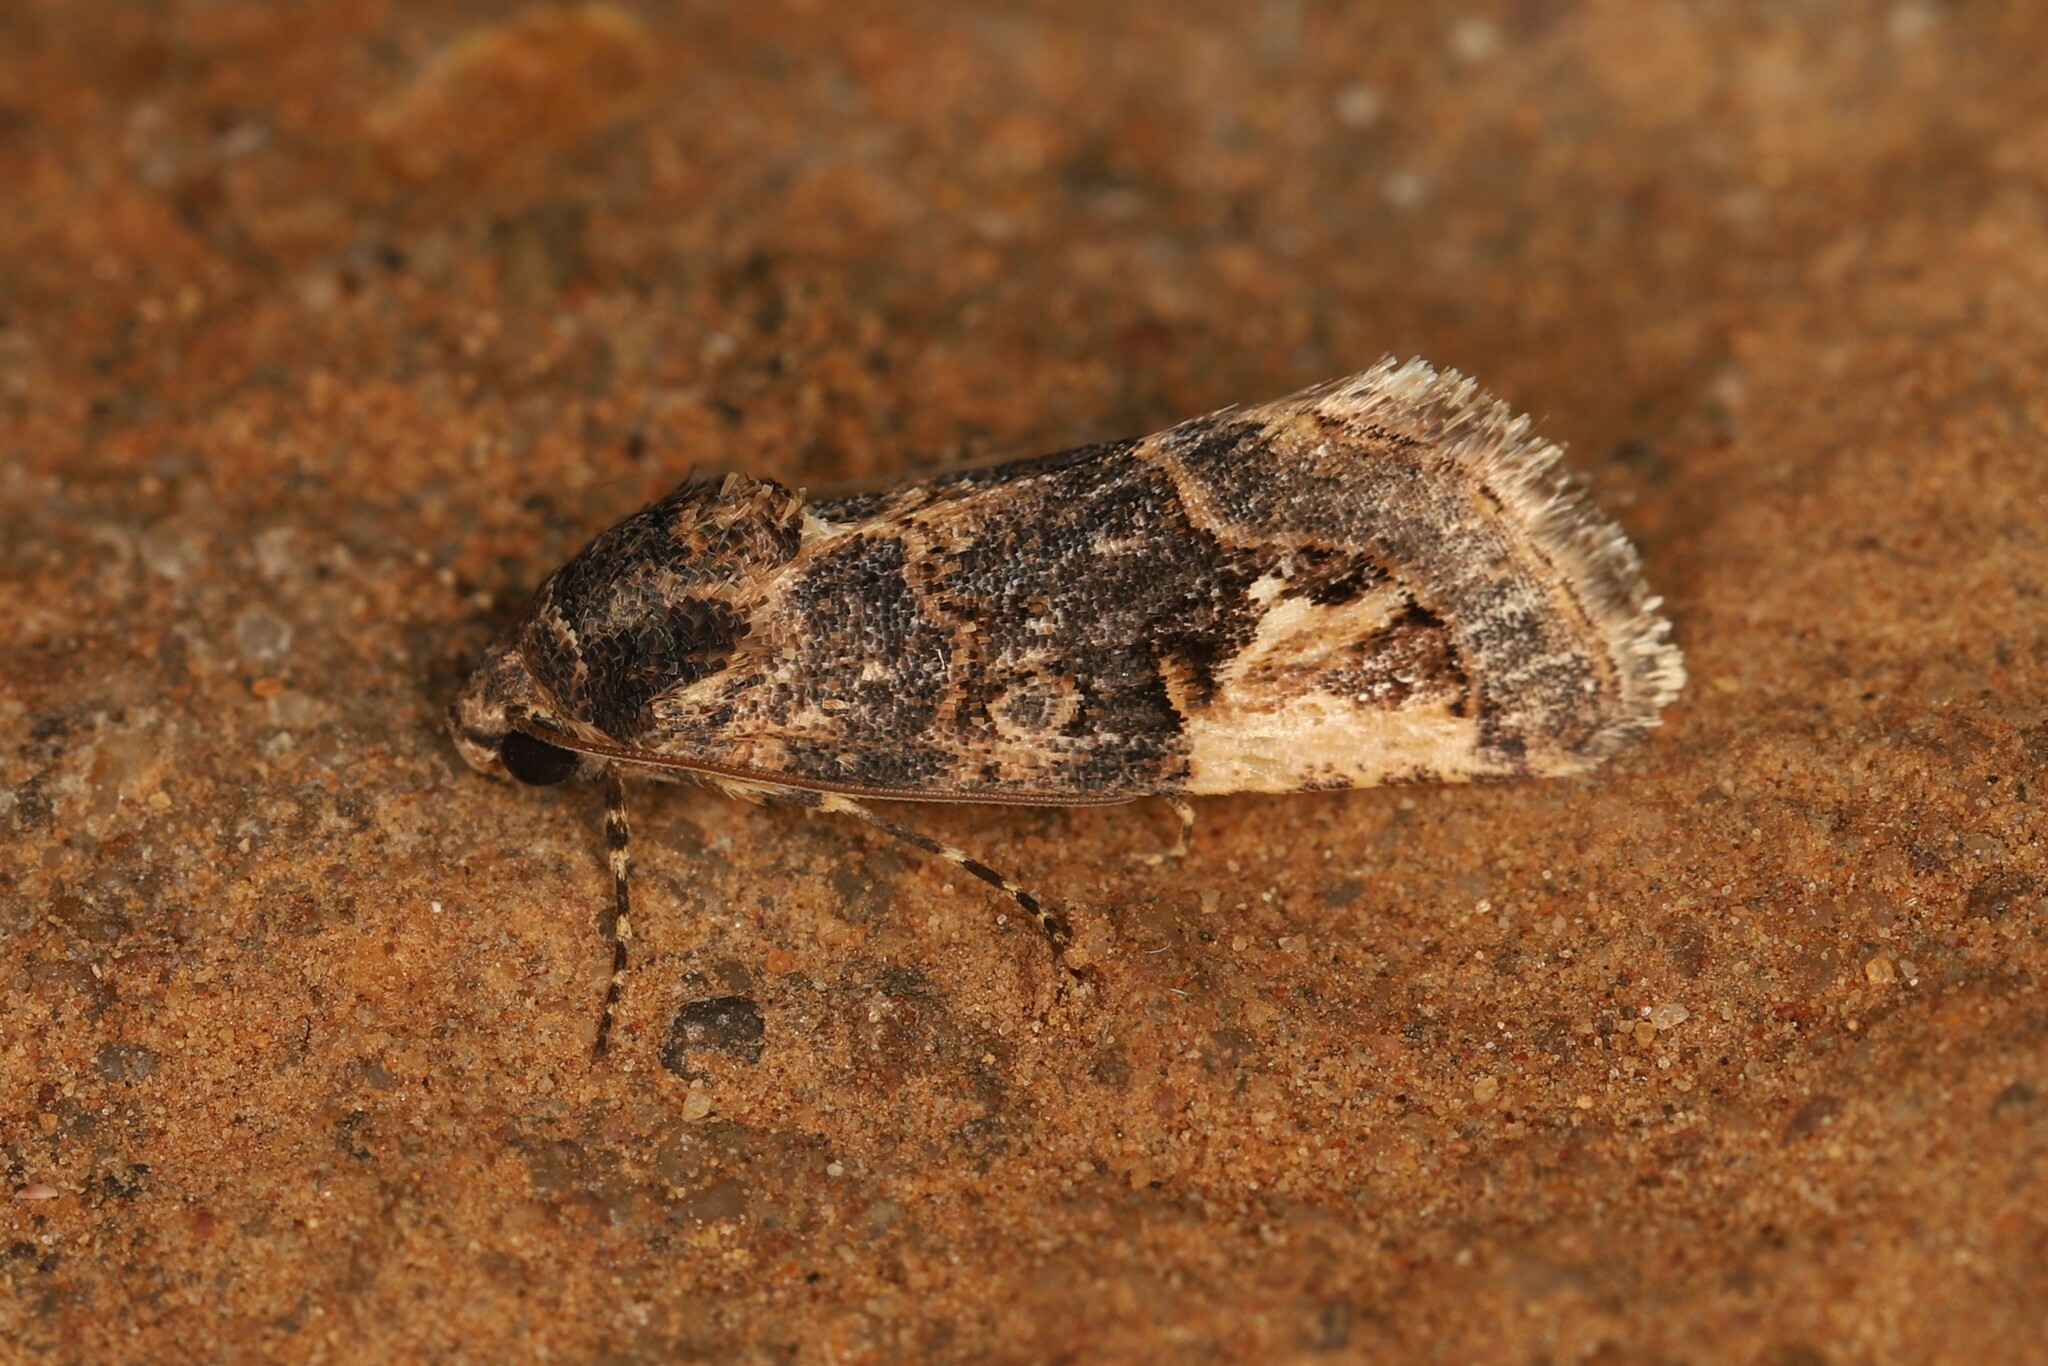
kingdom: Animalia
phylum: Arthropoda
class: Insecta
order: Lepidoptera
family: Erebidae
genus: Epharmottomena
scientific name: Epharmottomena eremophila
